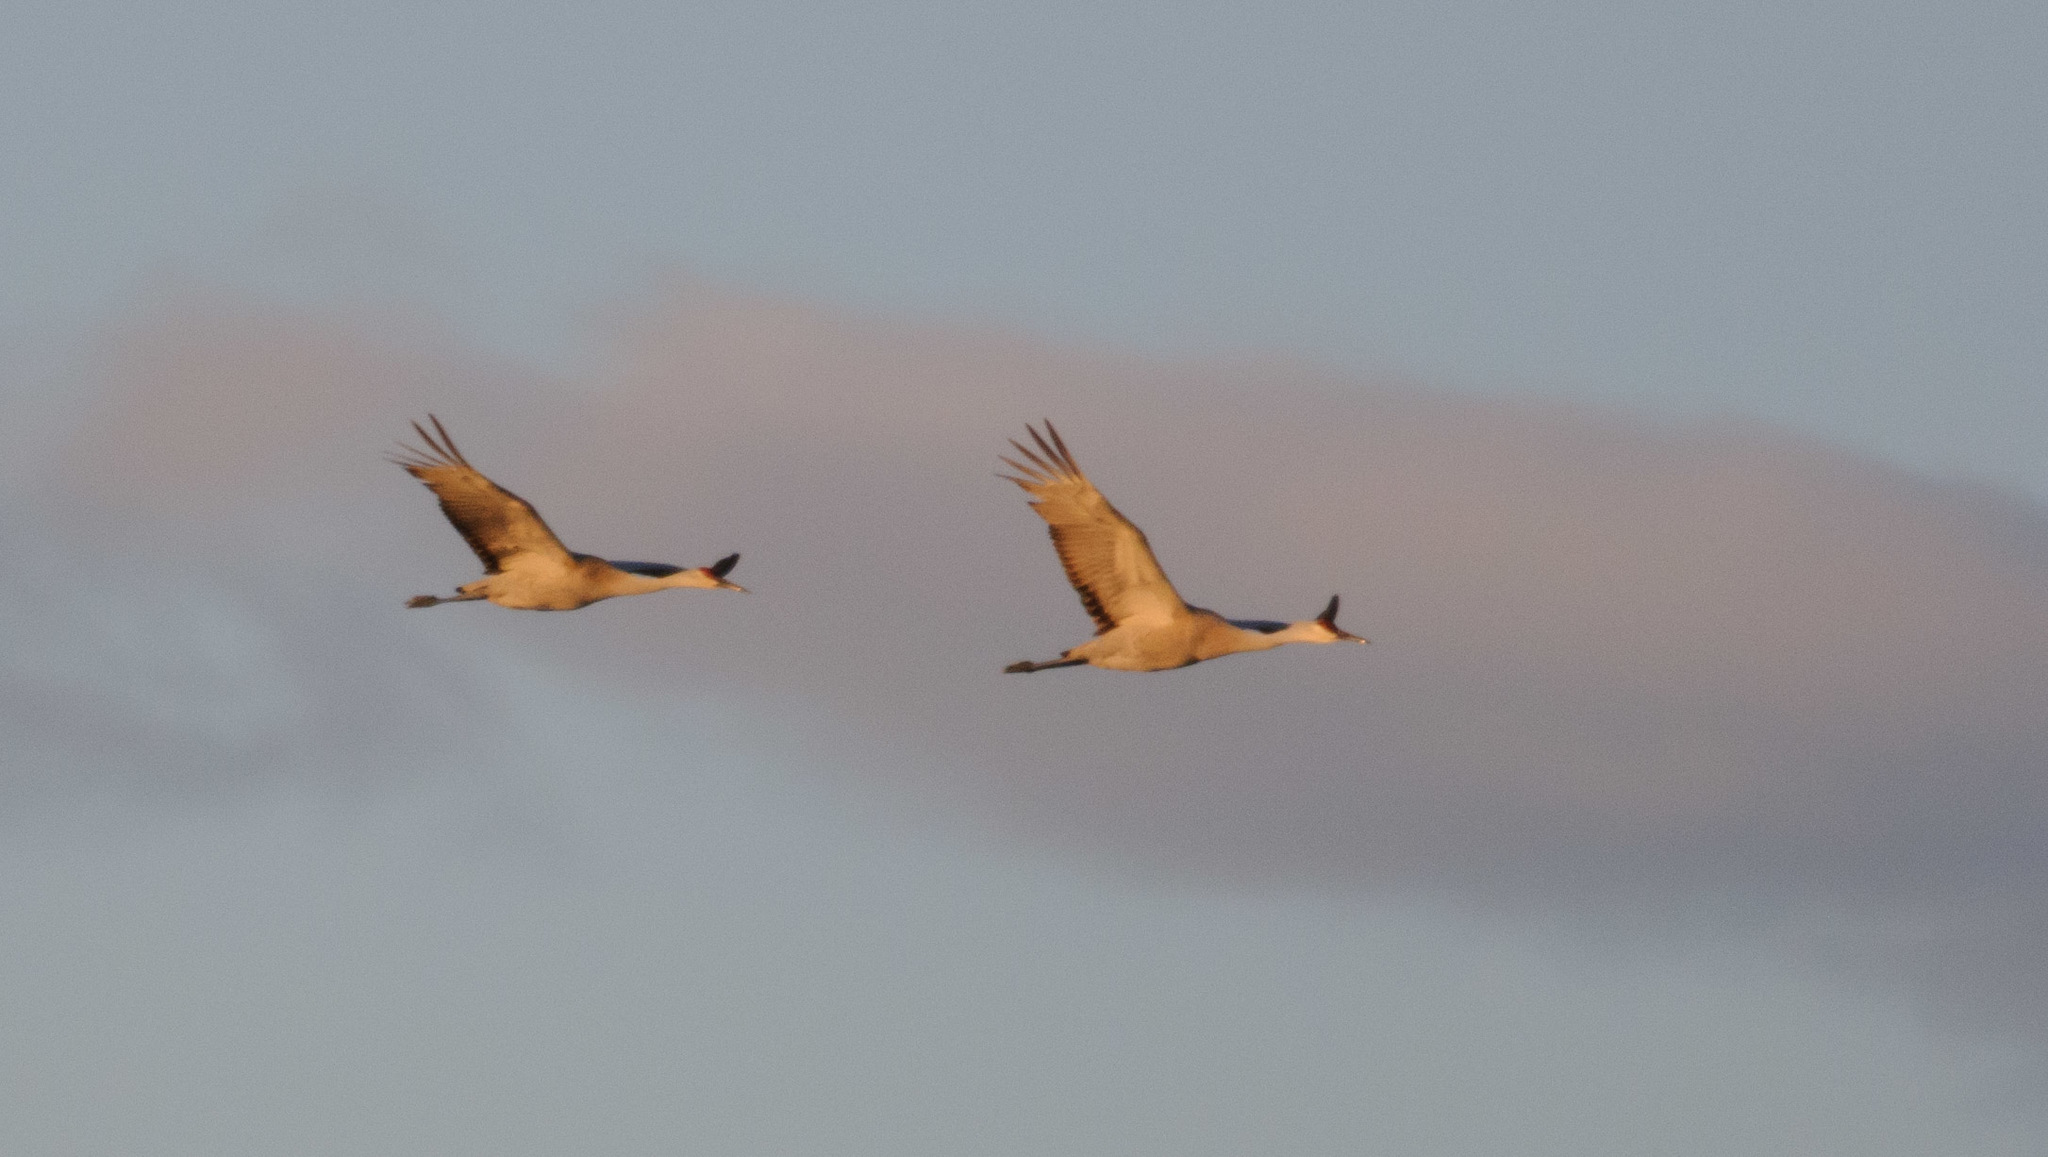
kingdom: Animalia
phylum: Chordata
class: Aves
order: Gruiformes
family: Gruidae
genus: Grus
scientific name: Grus canadensis
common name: Sandhill crane
